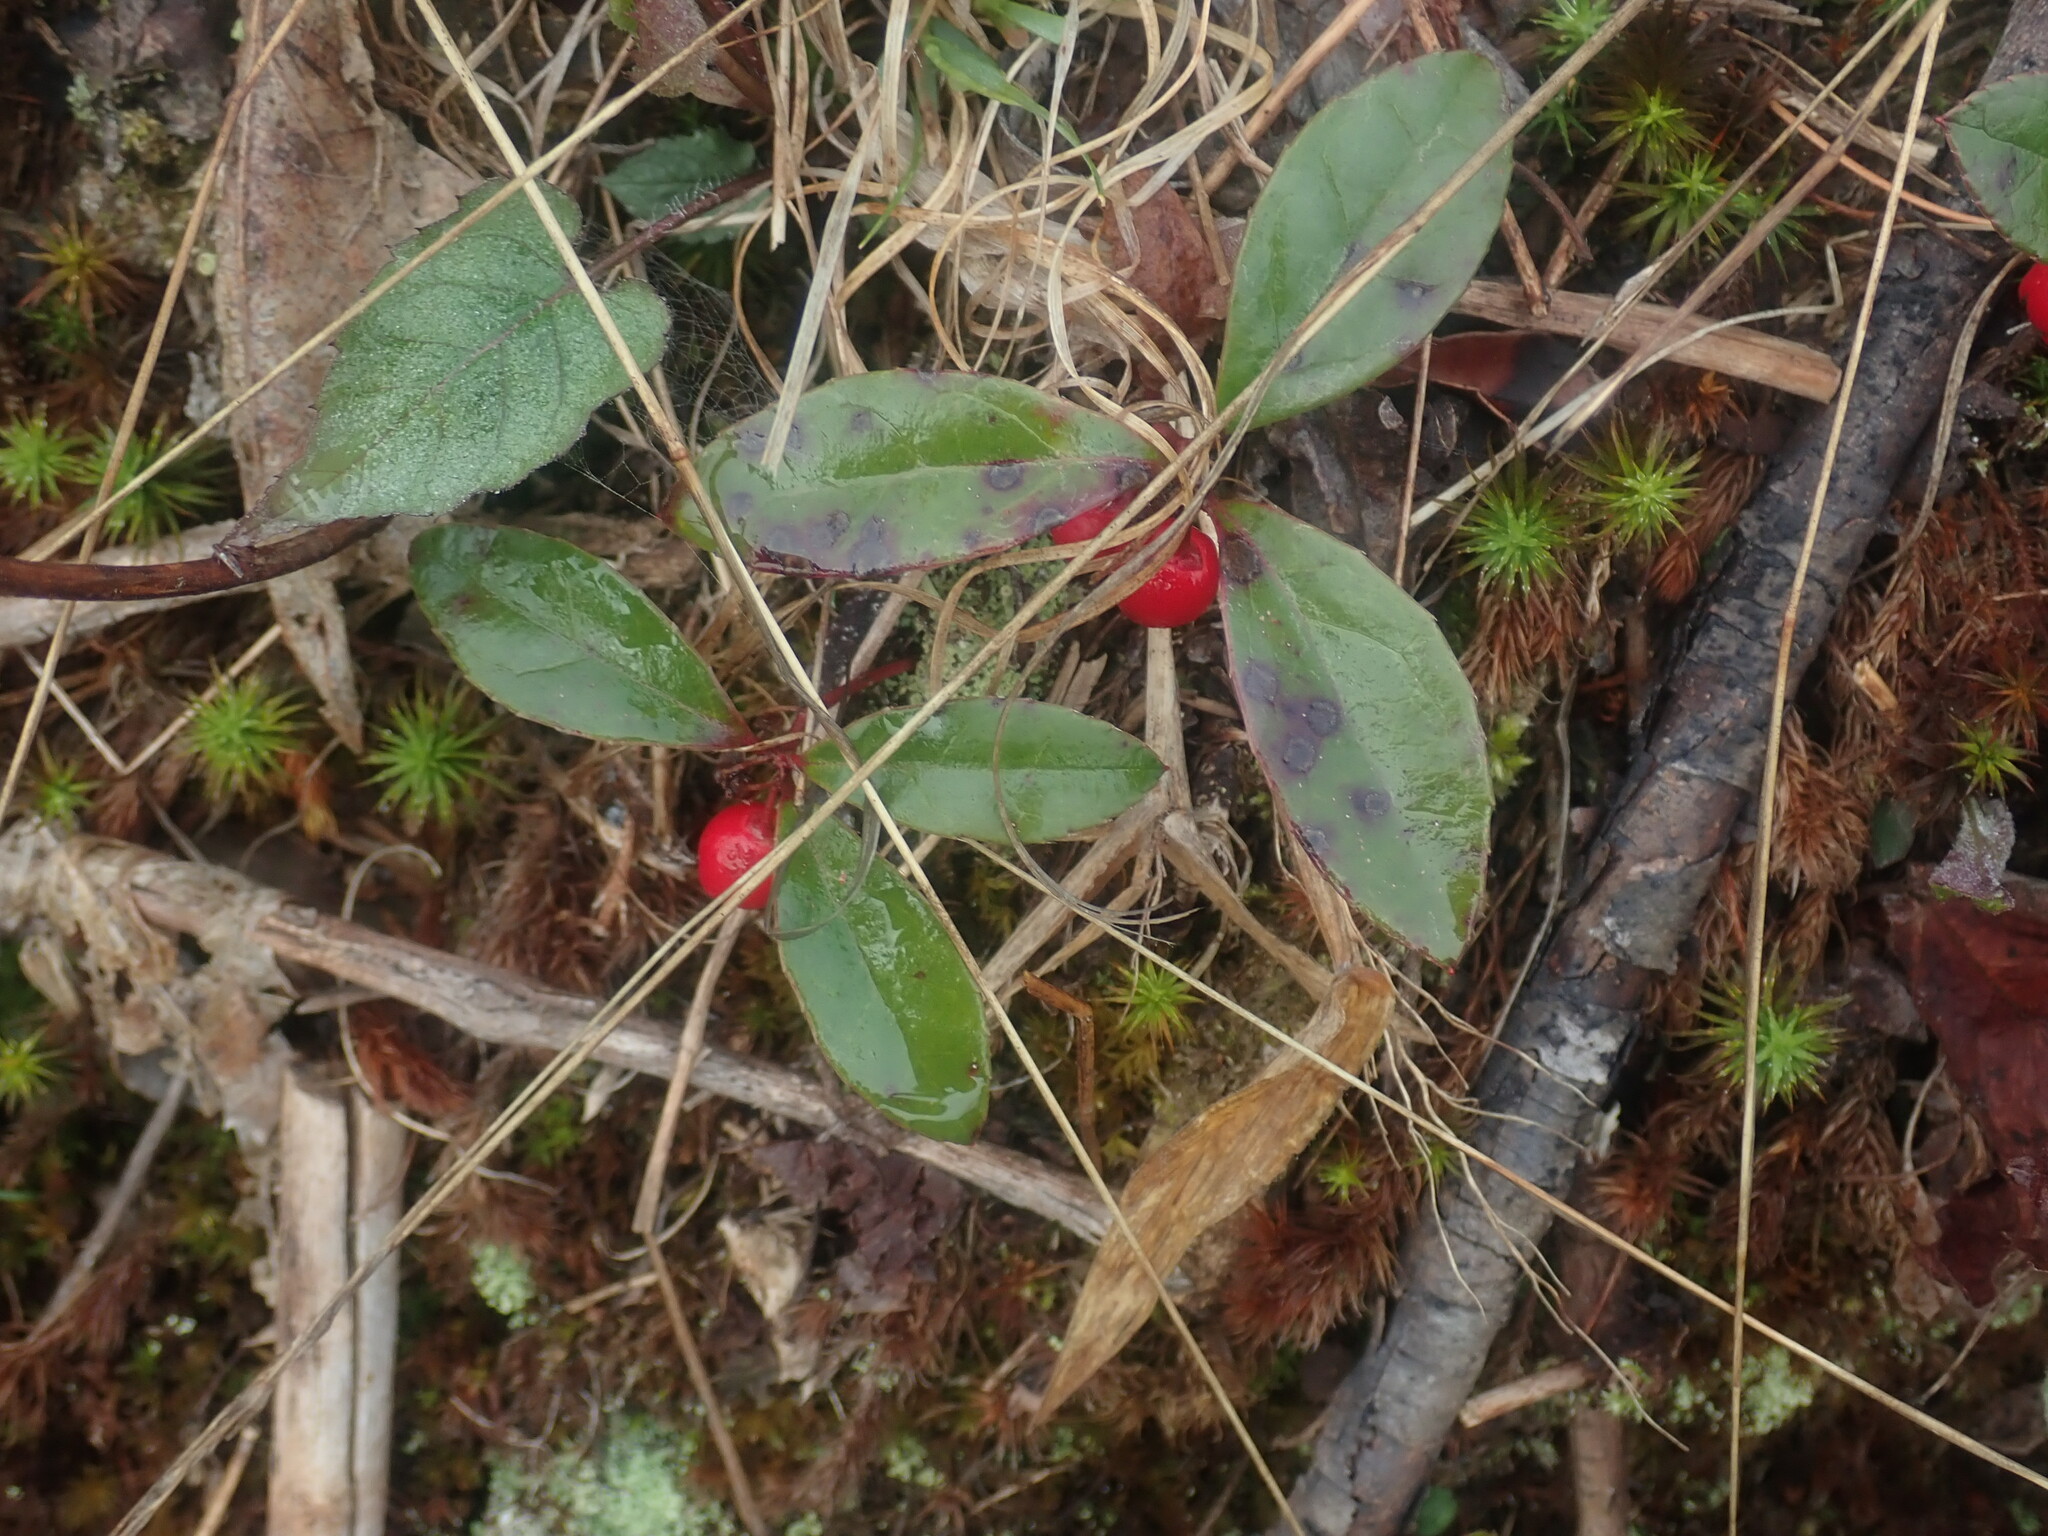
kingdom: Plantae
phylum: Tracheophyta
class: Magnoliopsida
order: Ericales
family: Ericaceae
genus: Gaultheria
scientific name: Gaultheria procumbens
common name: Checkerberry
